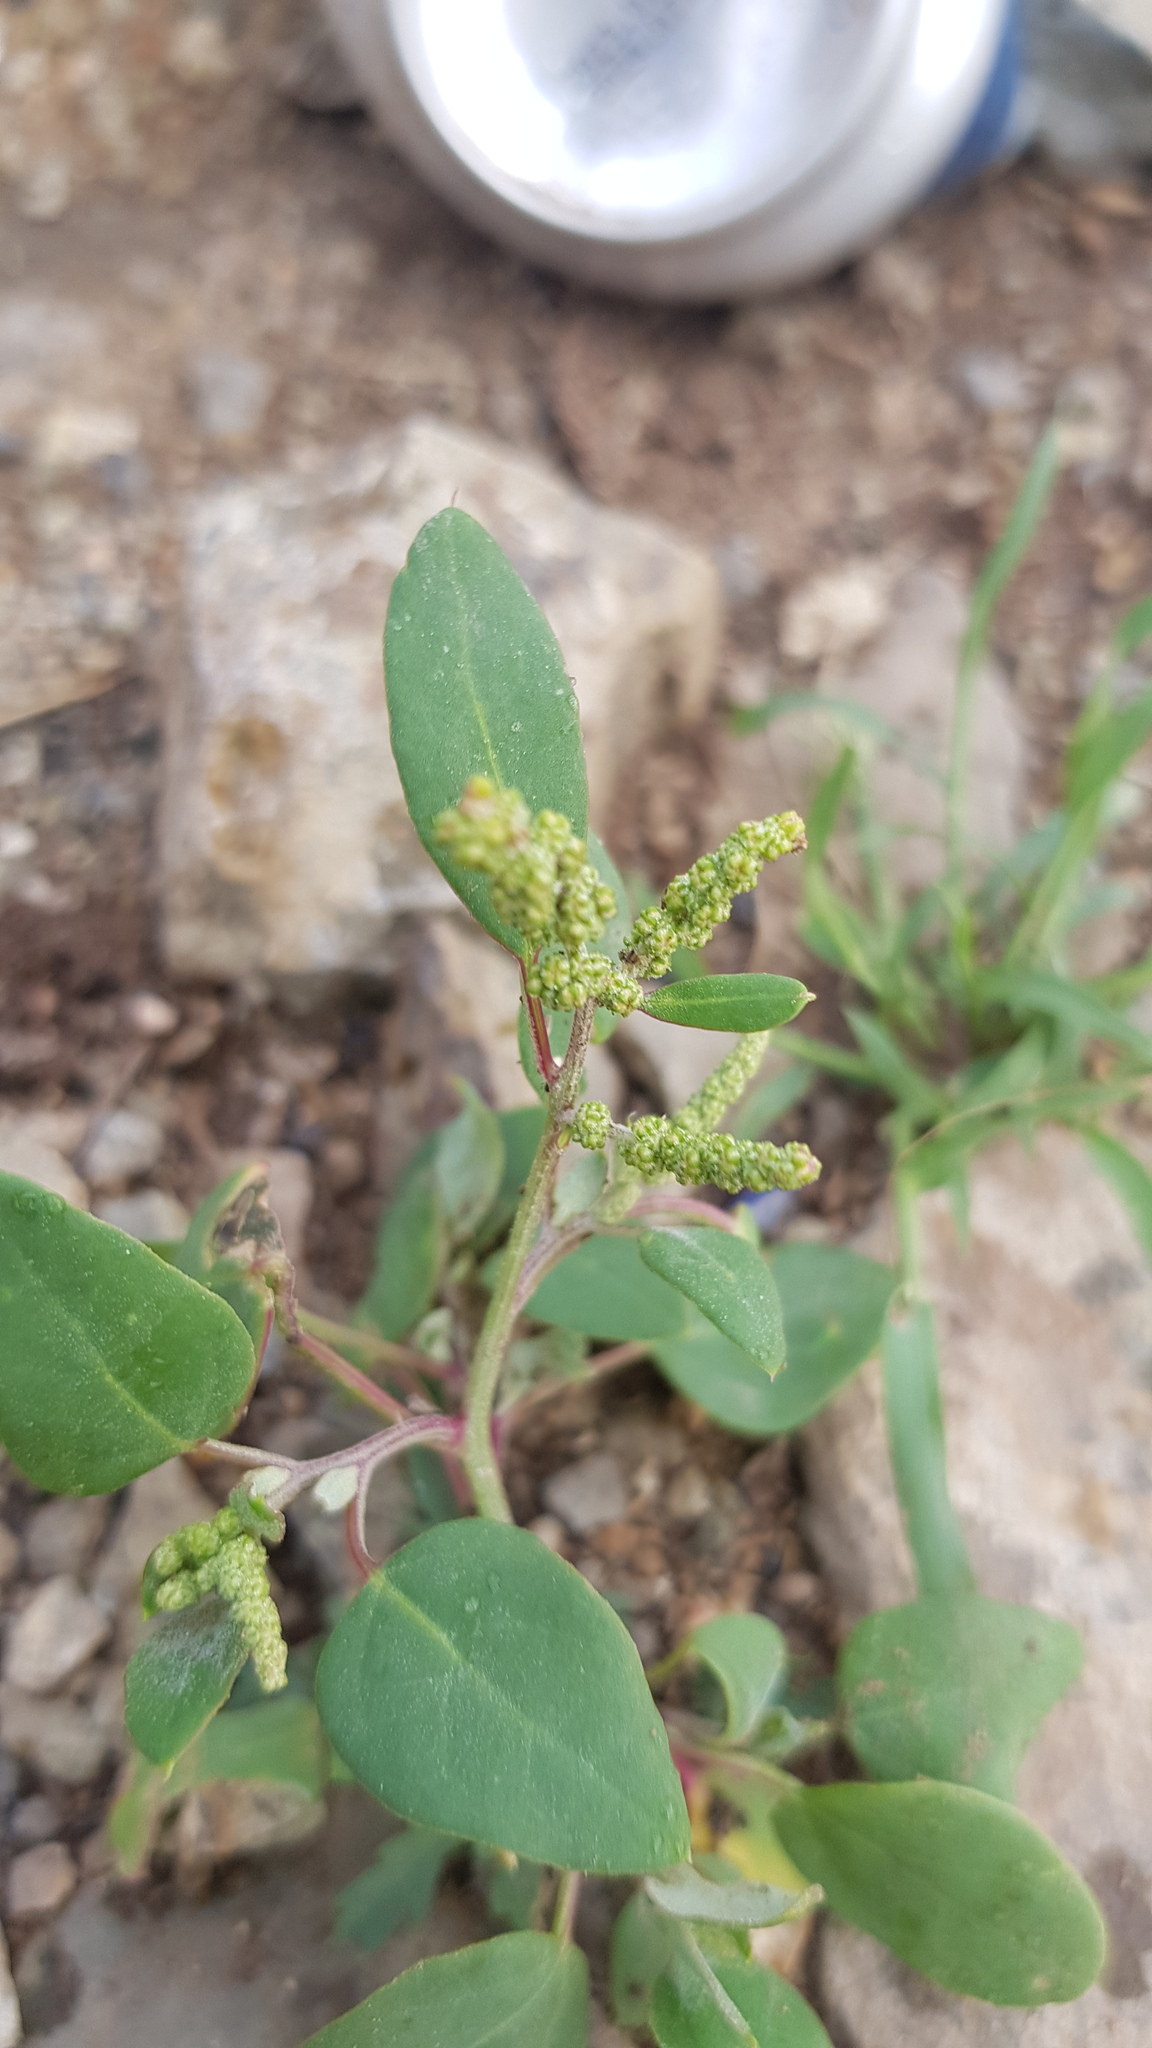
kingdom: Plantae
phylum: Tracheophyta
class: Magnoliopsida
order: Caryophyllales
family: Amaranthaceae
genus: Chenopodium
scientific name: Chenopodium acuminatum
